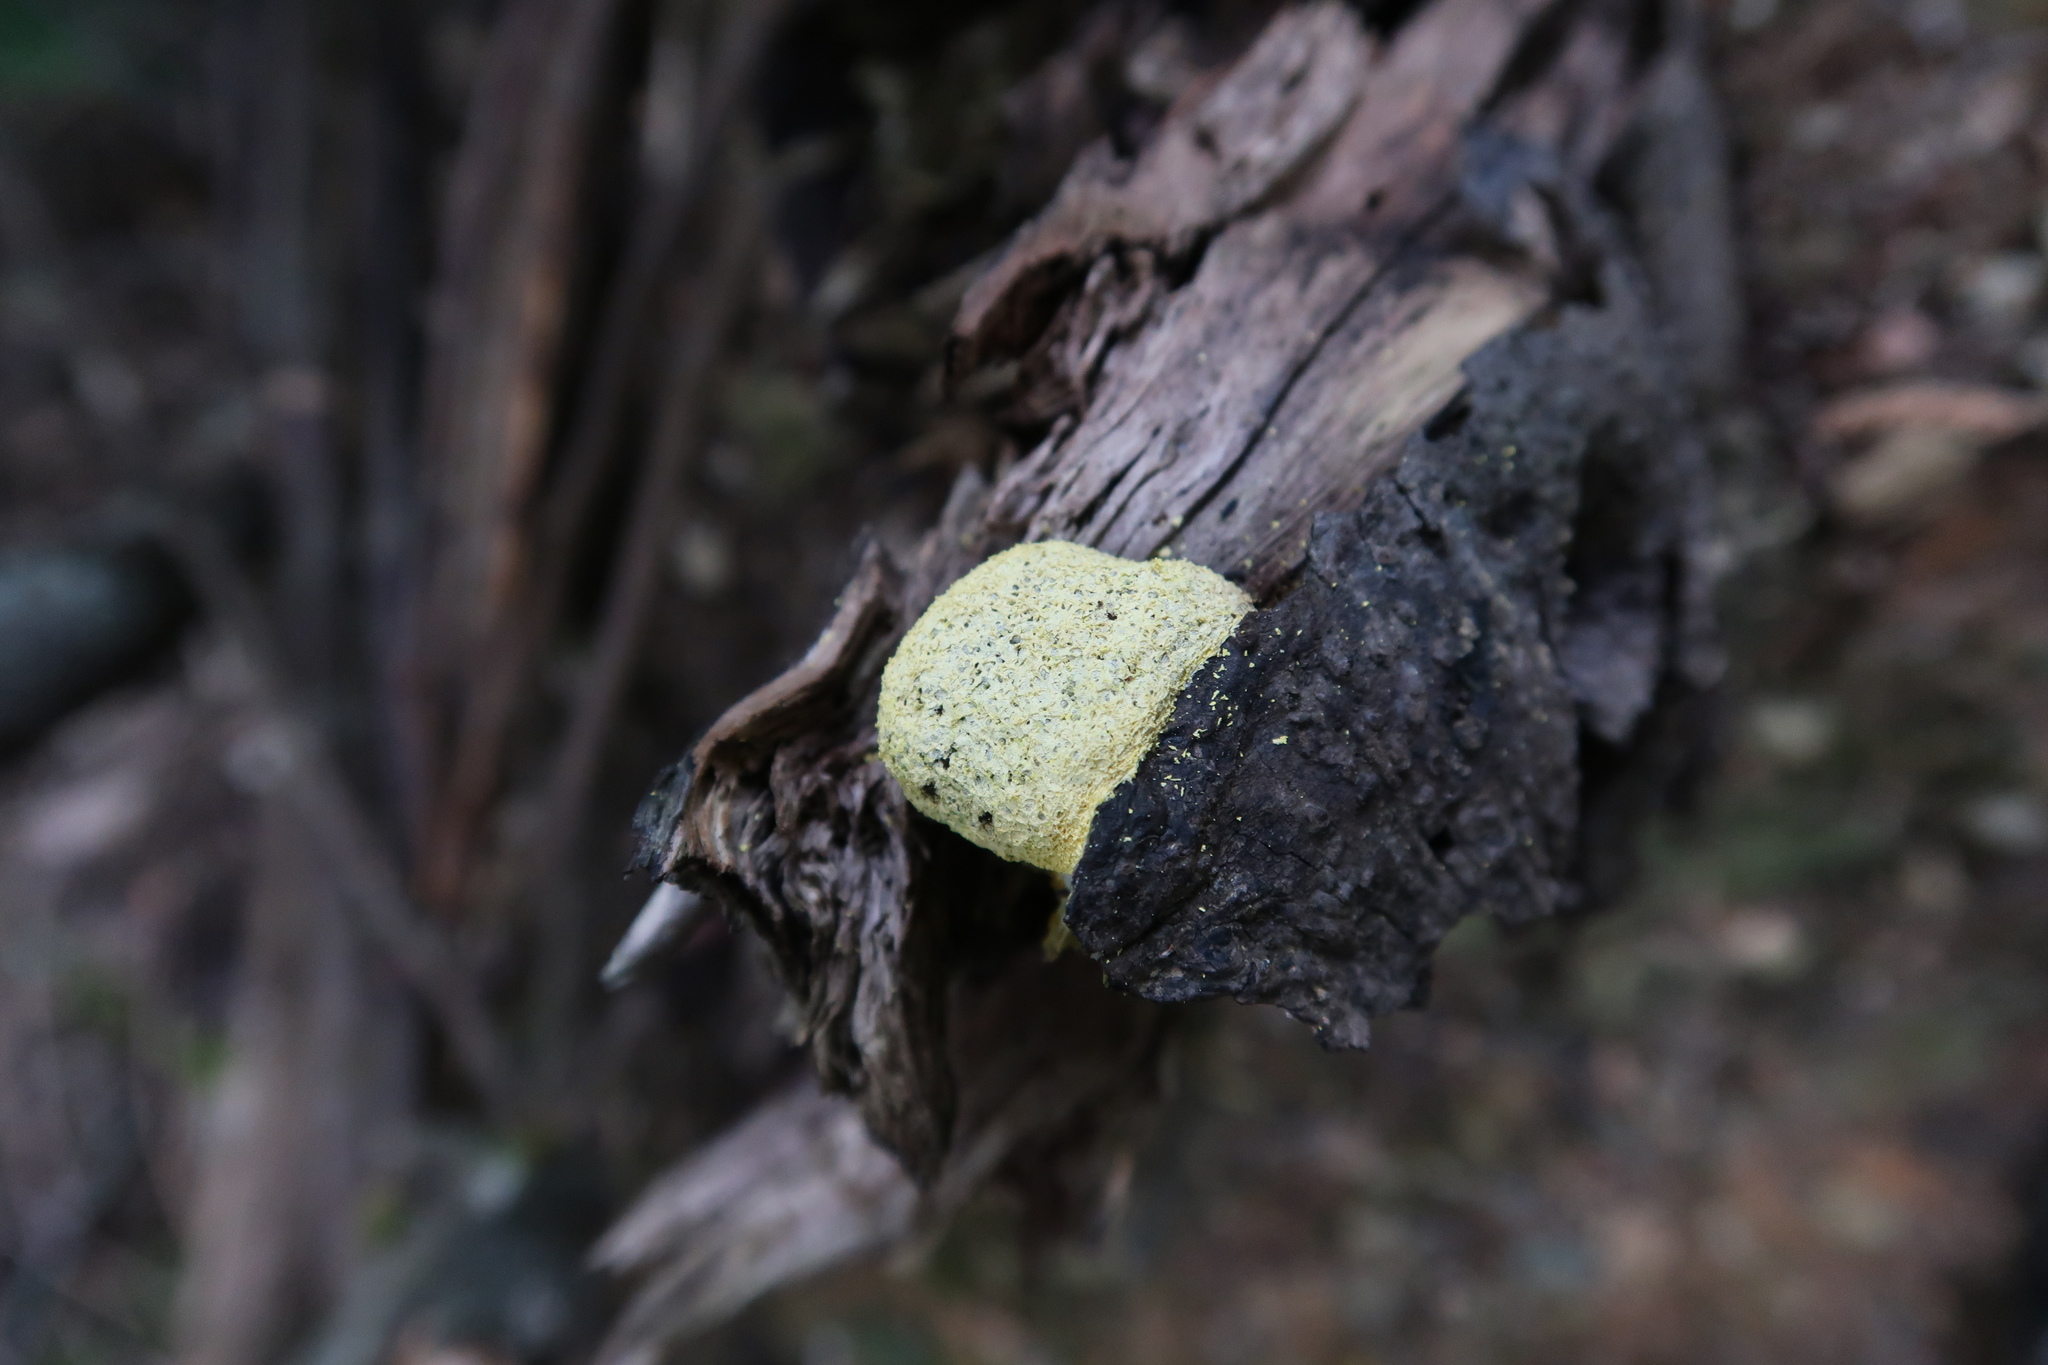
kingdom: Protozoa
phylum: Mycetozoa
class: Myxomycetes
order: Physarales
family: Physaraceae
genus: Fuligo
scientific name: Fuligo septica
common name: Dog vomit slime mold
